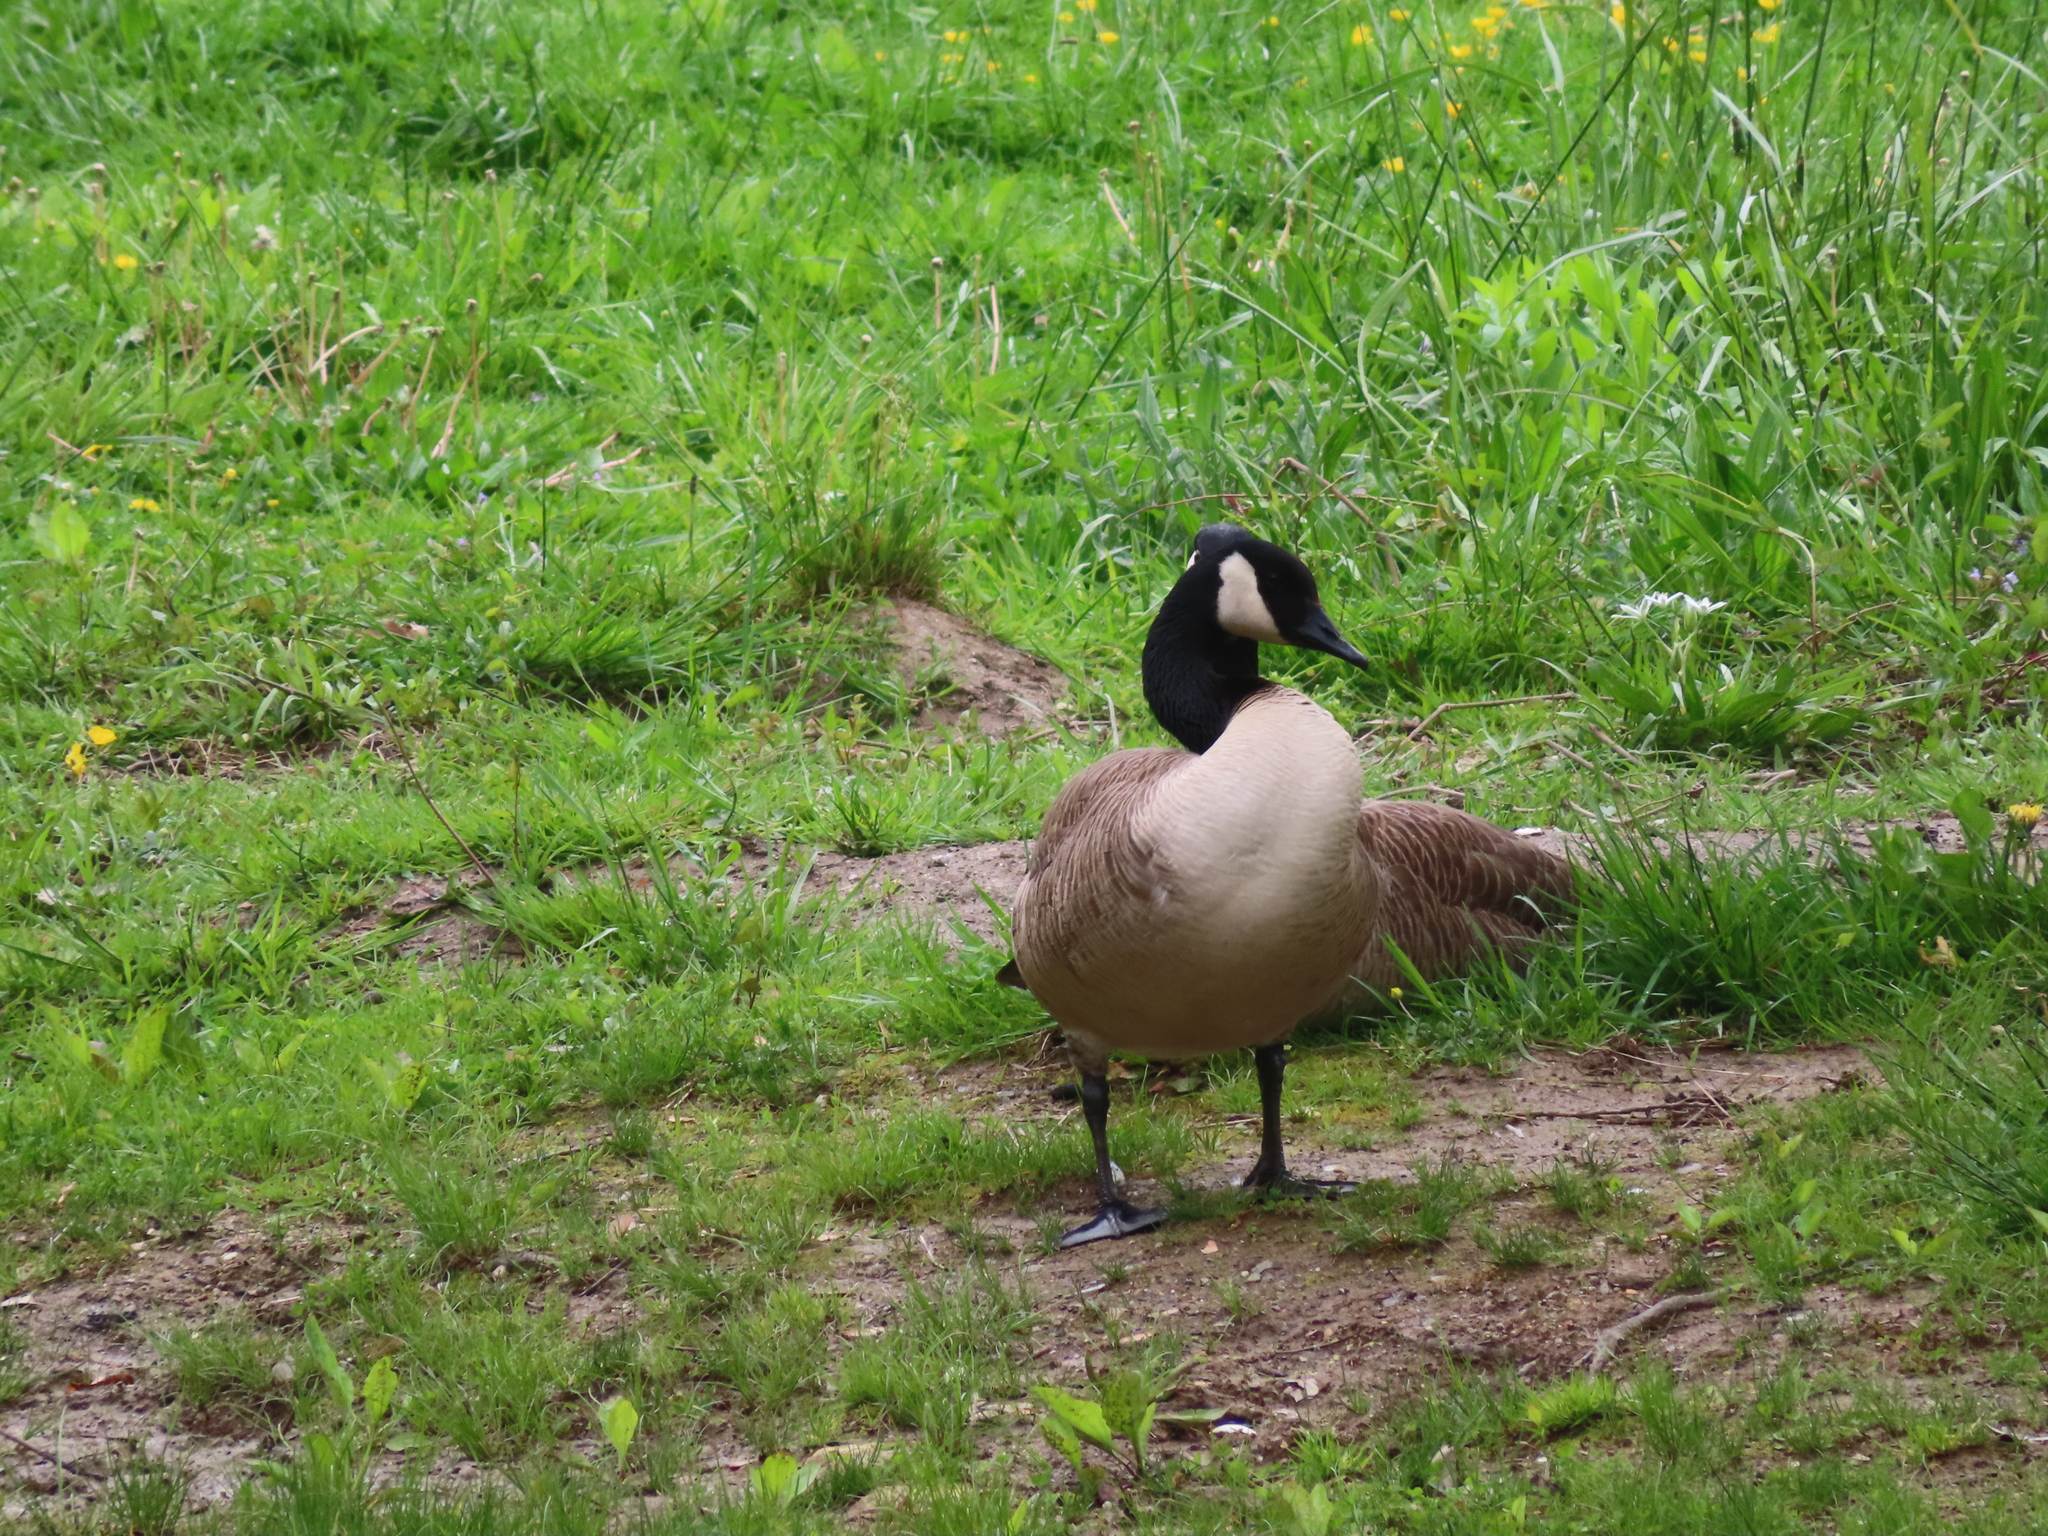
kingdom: Animalia
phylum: Chordata
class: Aves
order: Anseriformes
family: Anatidae
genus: Branta
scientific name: Branta canadensis
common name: Canada goose
